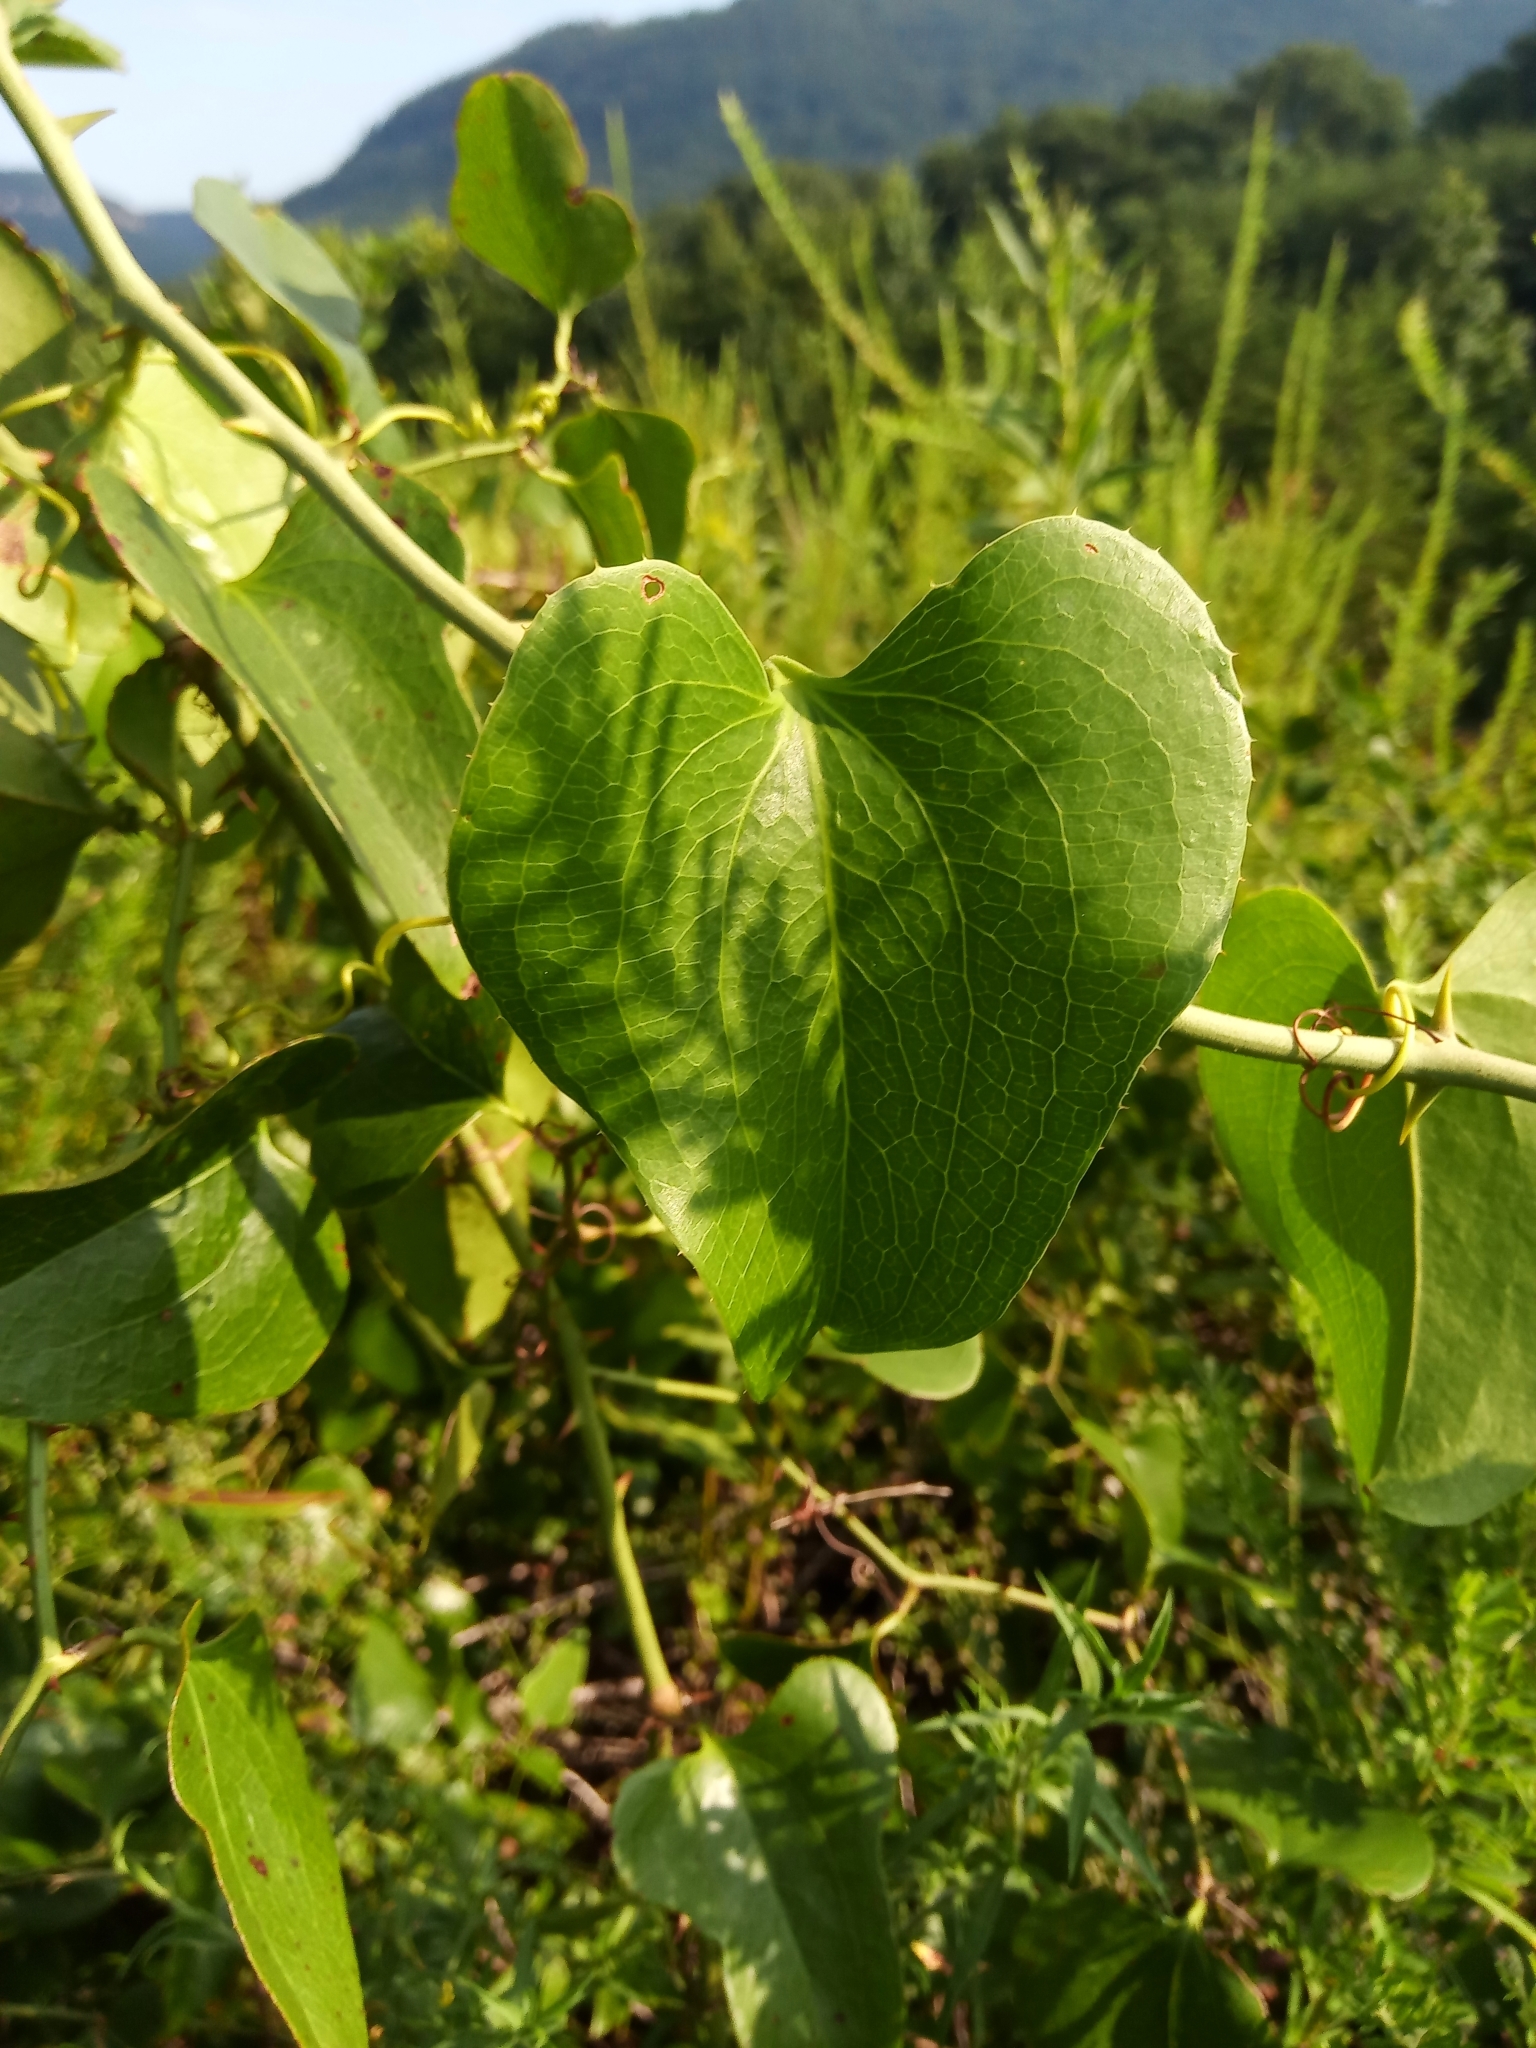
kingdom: Plantae
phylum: Tracheophyta
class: Liliopsida
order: Liliales
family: Smilacaceae
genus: Smilax
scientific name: Smilax bona-nox
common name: Catbrier
